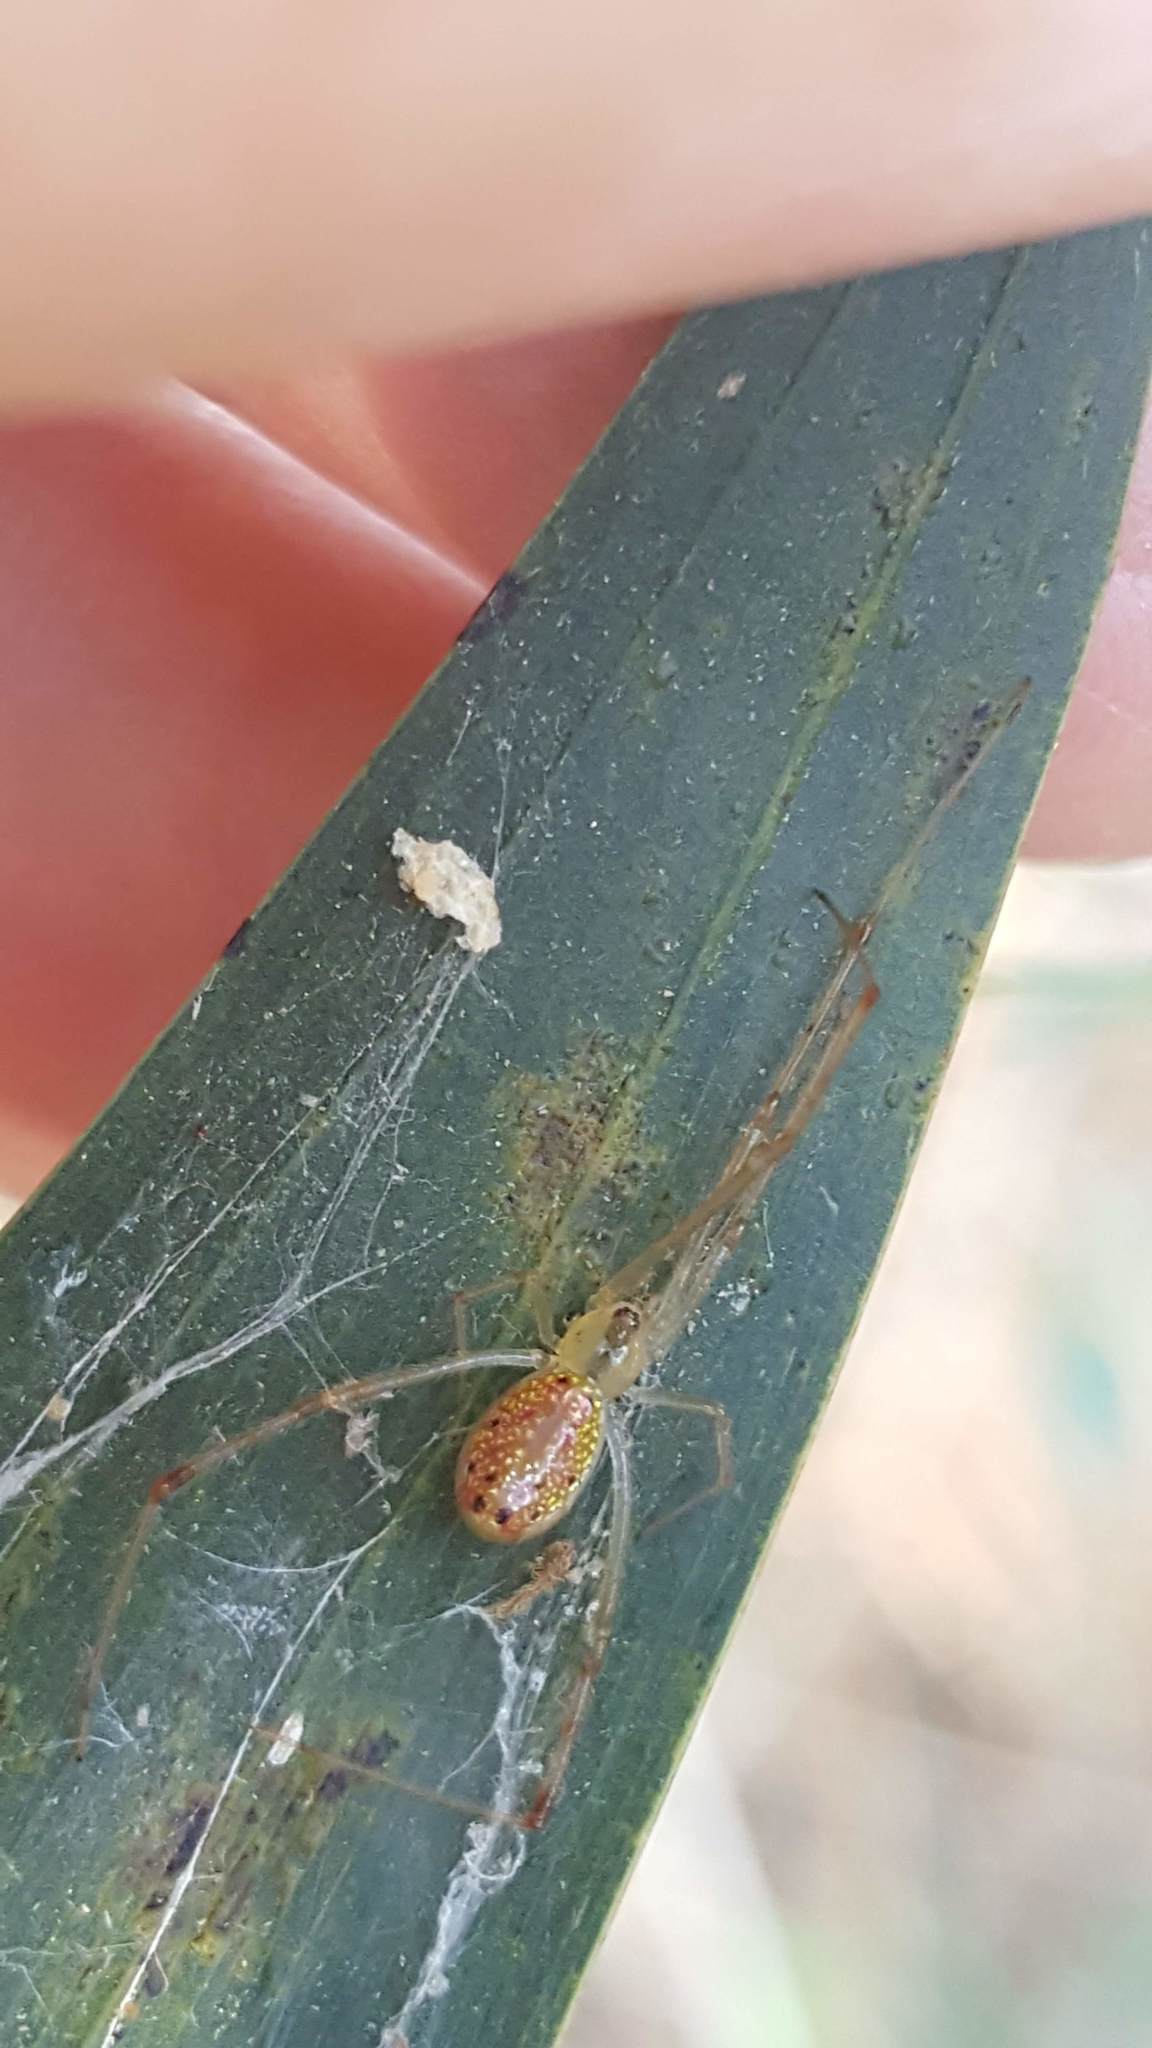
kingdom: Animalia
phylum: Arthropoda
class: Arachnida
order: Araneae
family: Theridiidae
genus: Thwaitesia
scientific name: Thwaitesia nigronodosa
